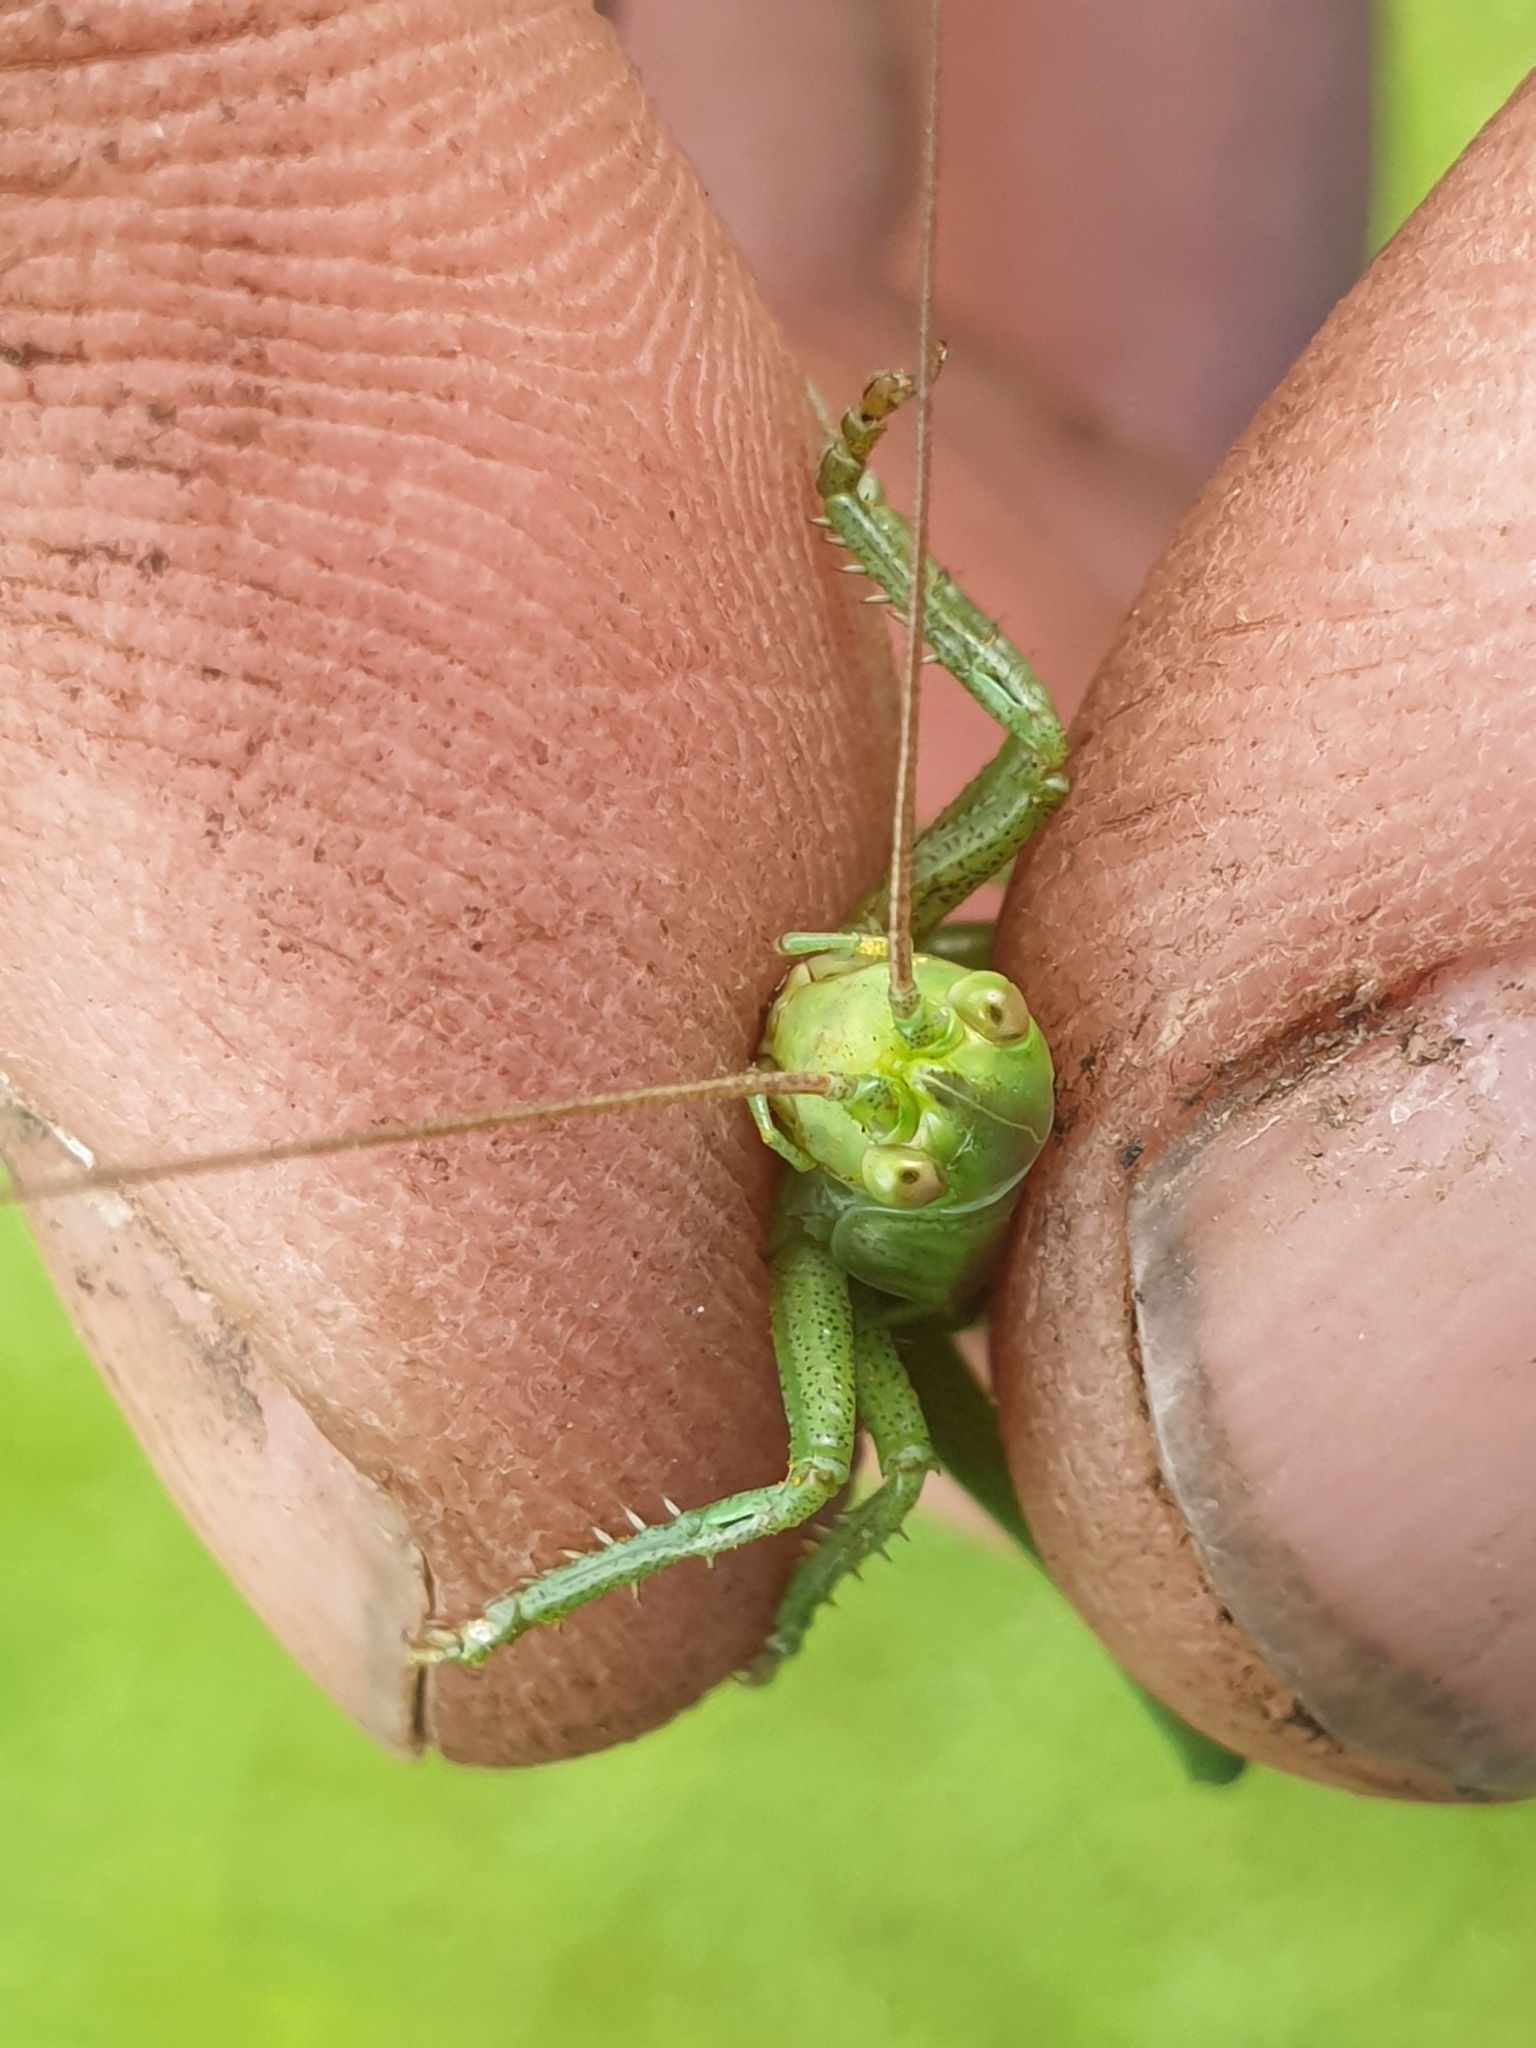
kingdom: Animalia
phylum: Arthropoda
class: Insecta
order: Orthoptera
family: Tettigoniidae
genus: Tettigonia
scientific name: Tettigonia viridissima
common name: Great green bush-cricket
